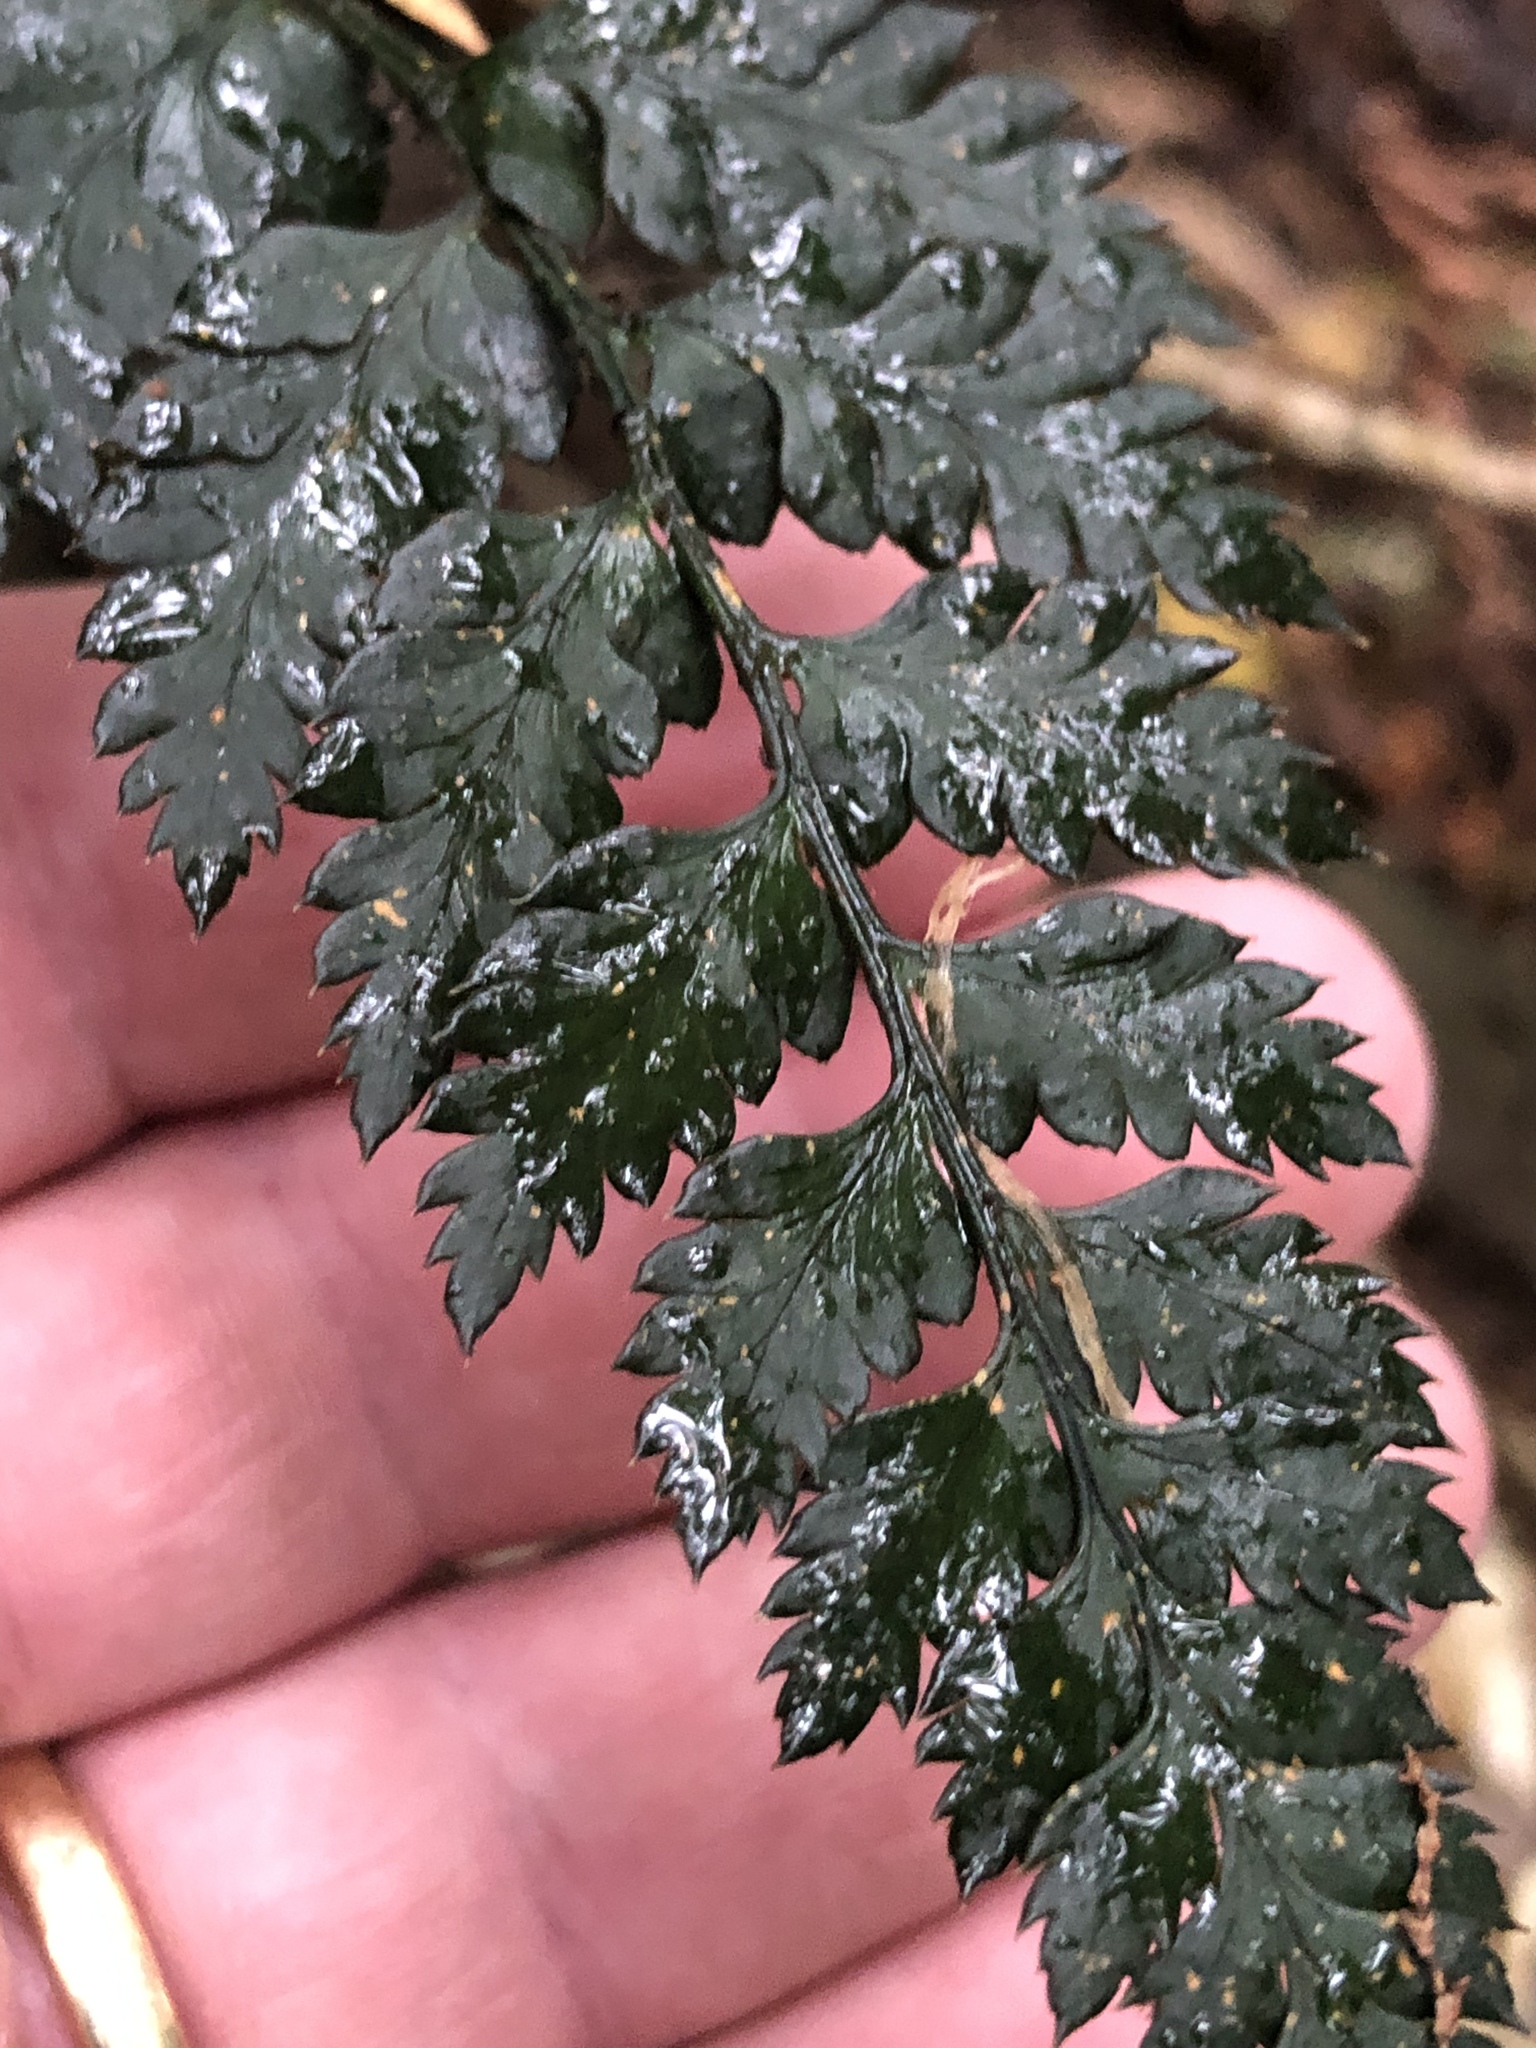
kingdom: Plantae
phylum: Tracheophyta
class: Polypodiopsida
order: Polypodiales
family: Dryopteridaceae
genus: Polystichum
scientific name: Polystichum oculatum
